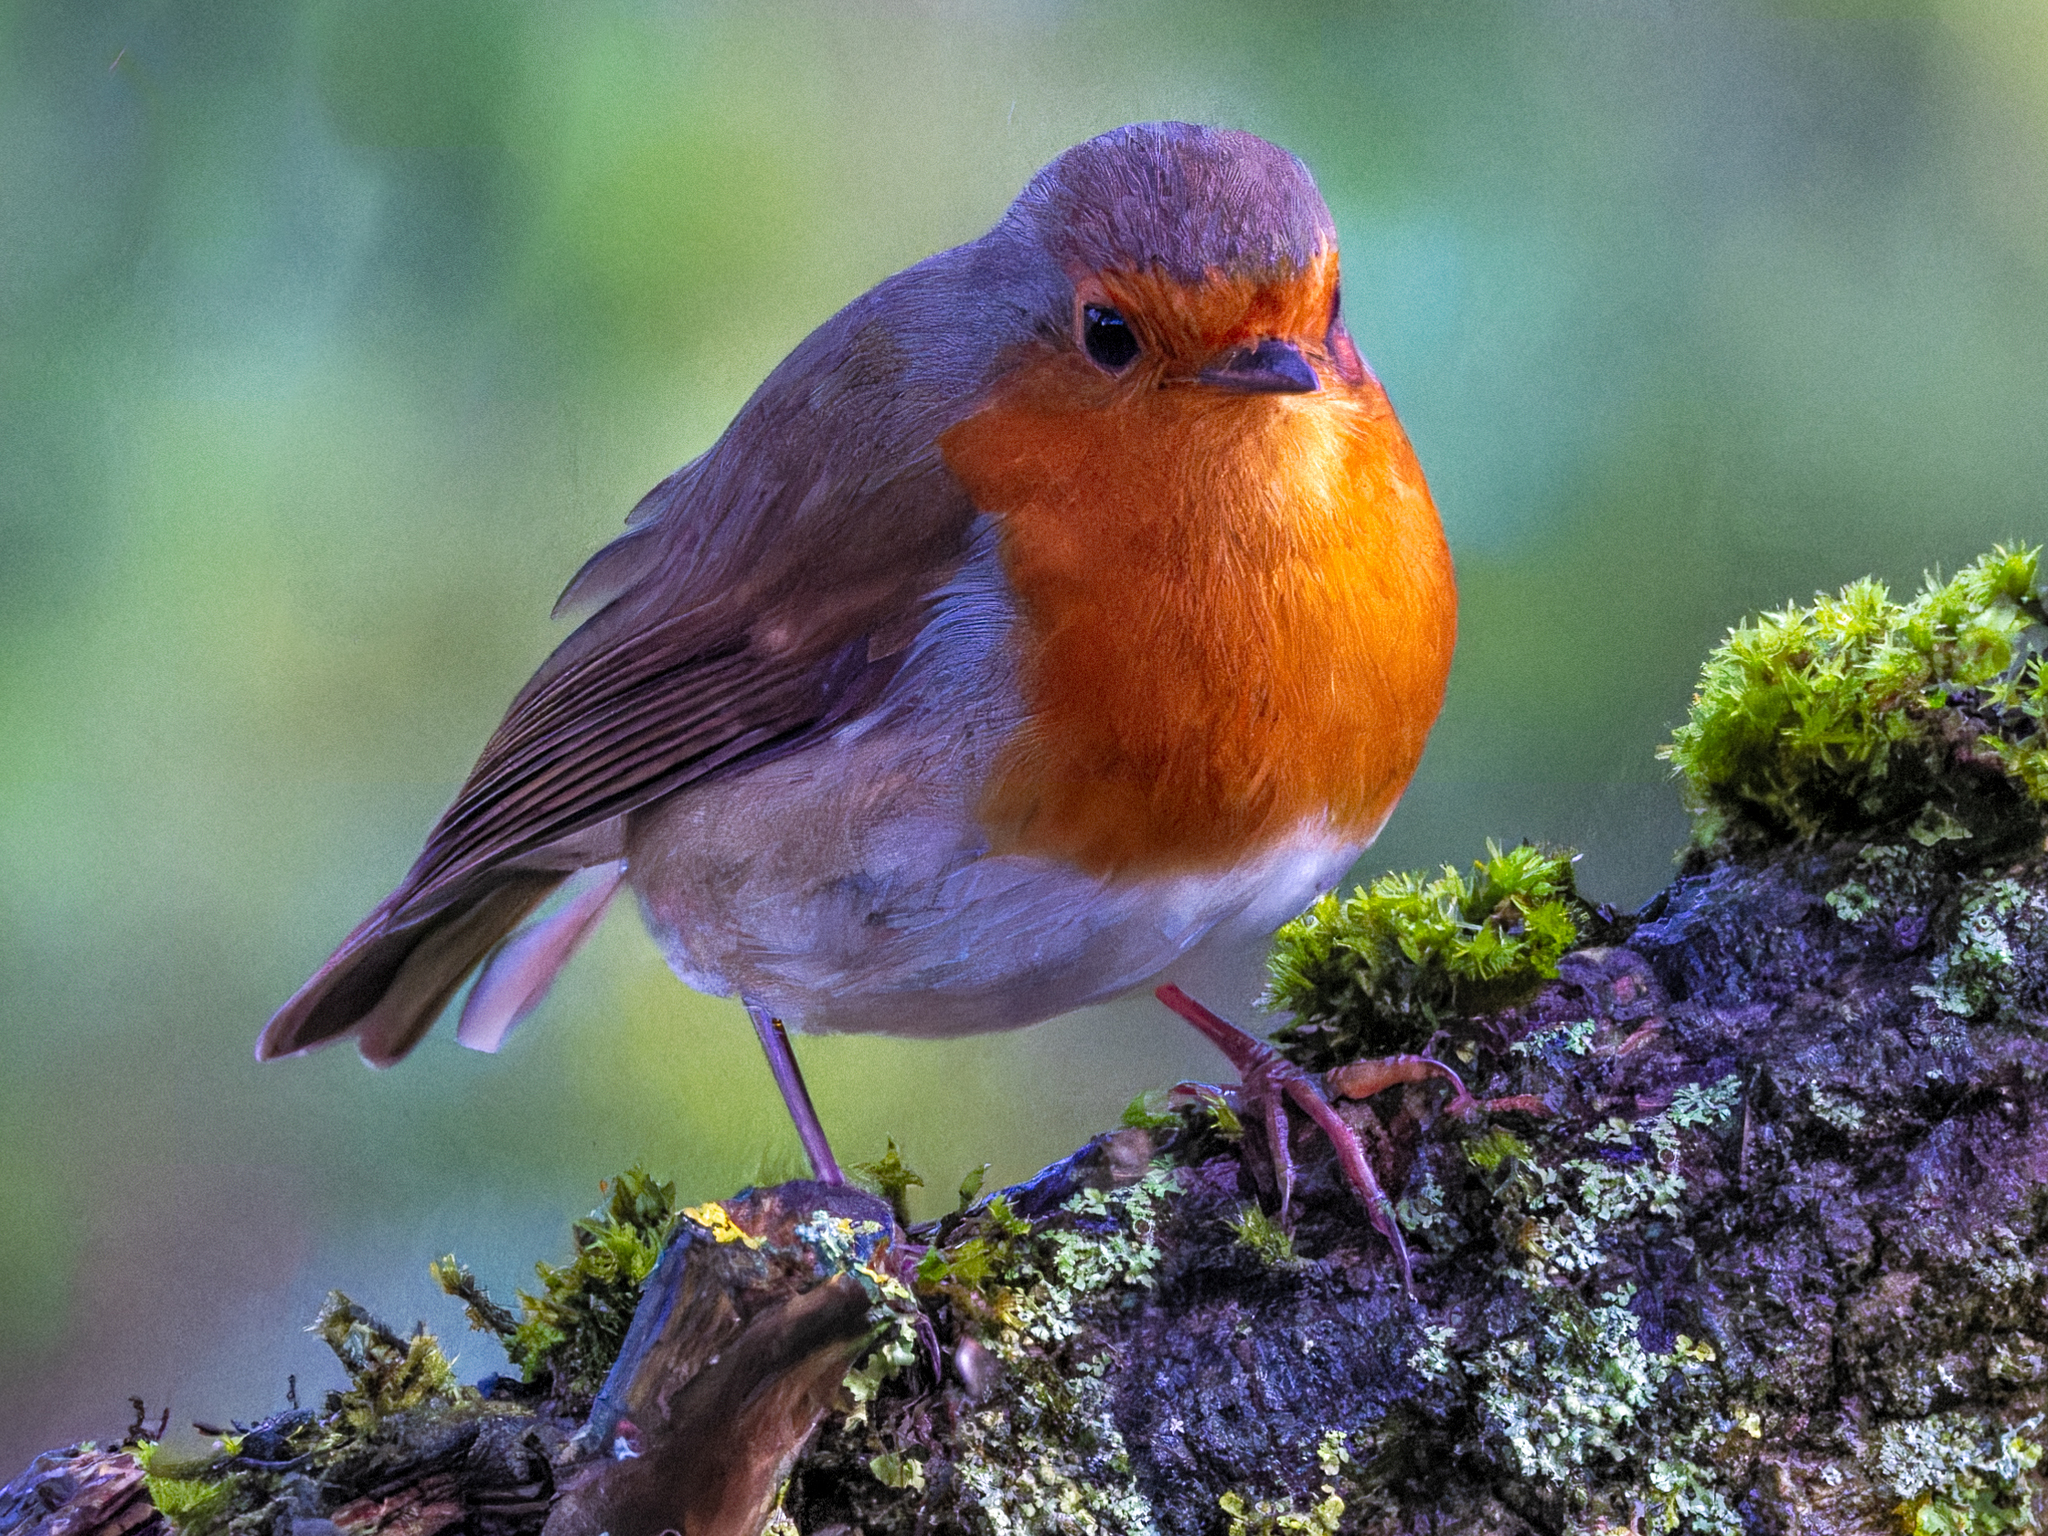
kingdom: Animalia
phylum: Chordata
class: Aves
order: Passeriformes
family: Muscicapidae
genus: Erithacus
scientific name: Erithacus rubecula
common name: European robin
